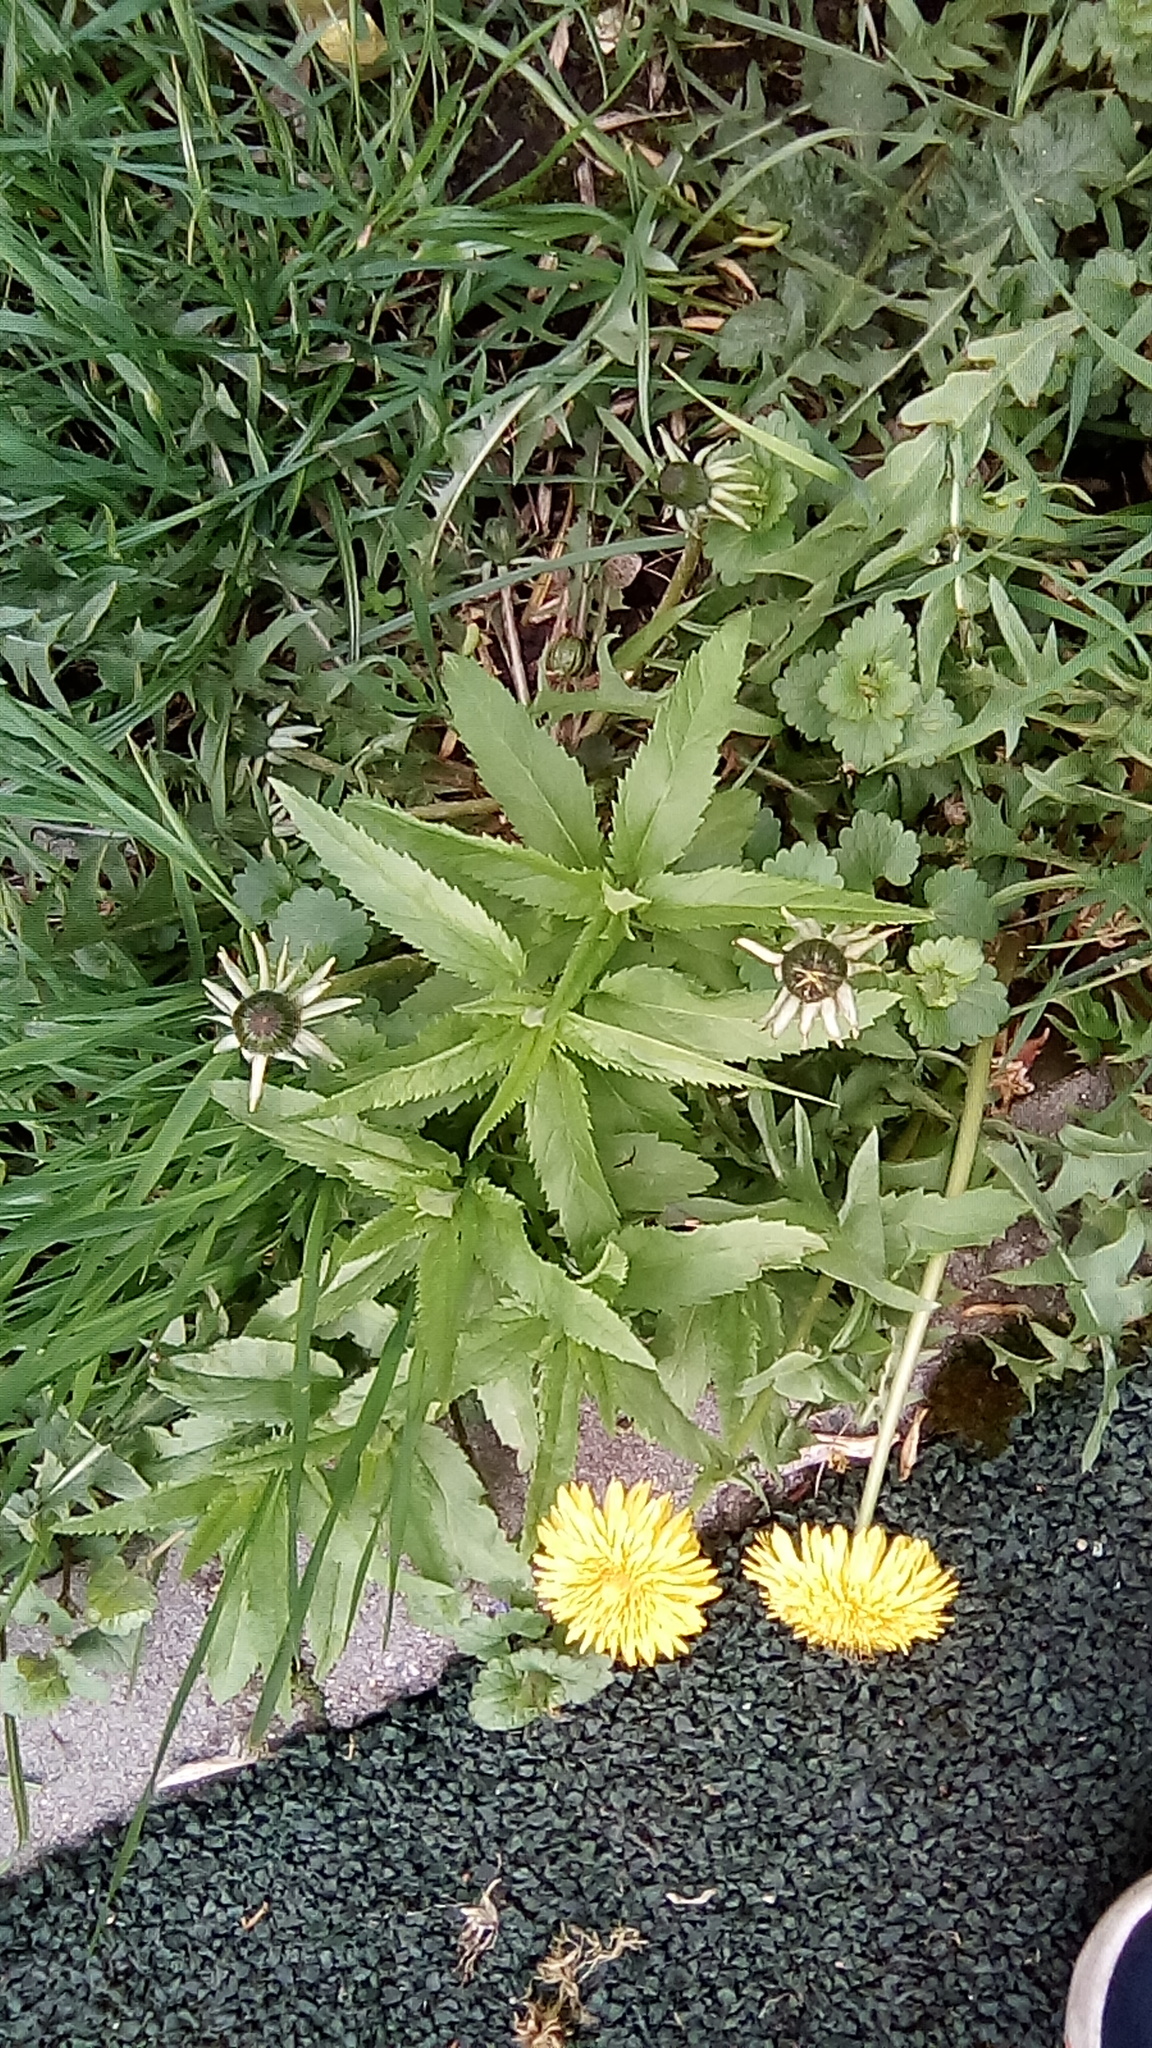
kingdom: Plantae
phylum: Tracheophyta
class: Magnoliopsida
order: Lamiales
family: Plantaginaceae
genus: Veronica
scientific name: Veronica longifolia
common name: Garden speedwell
